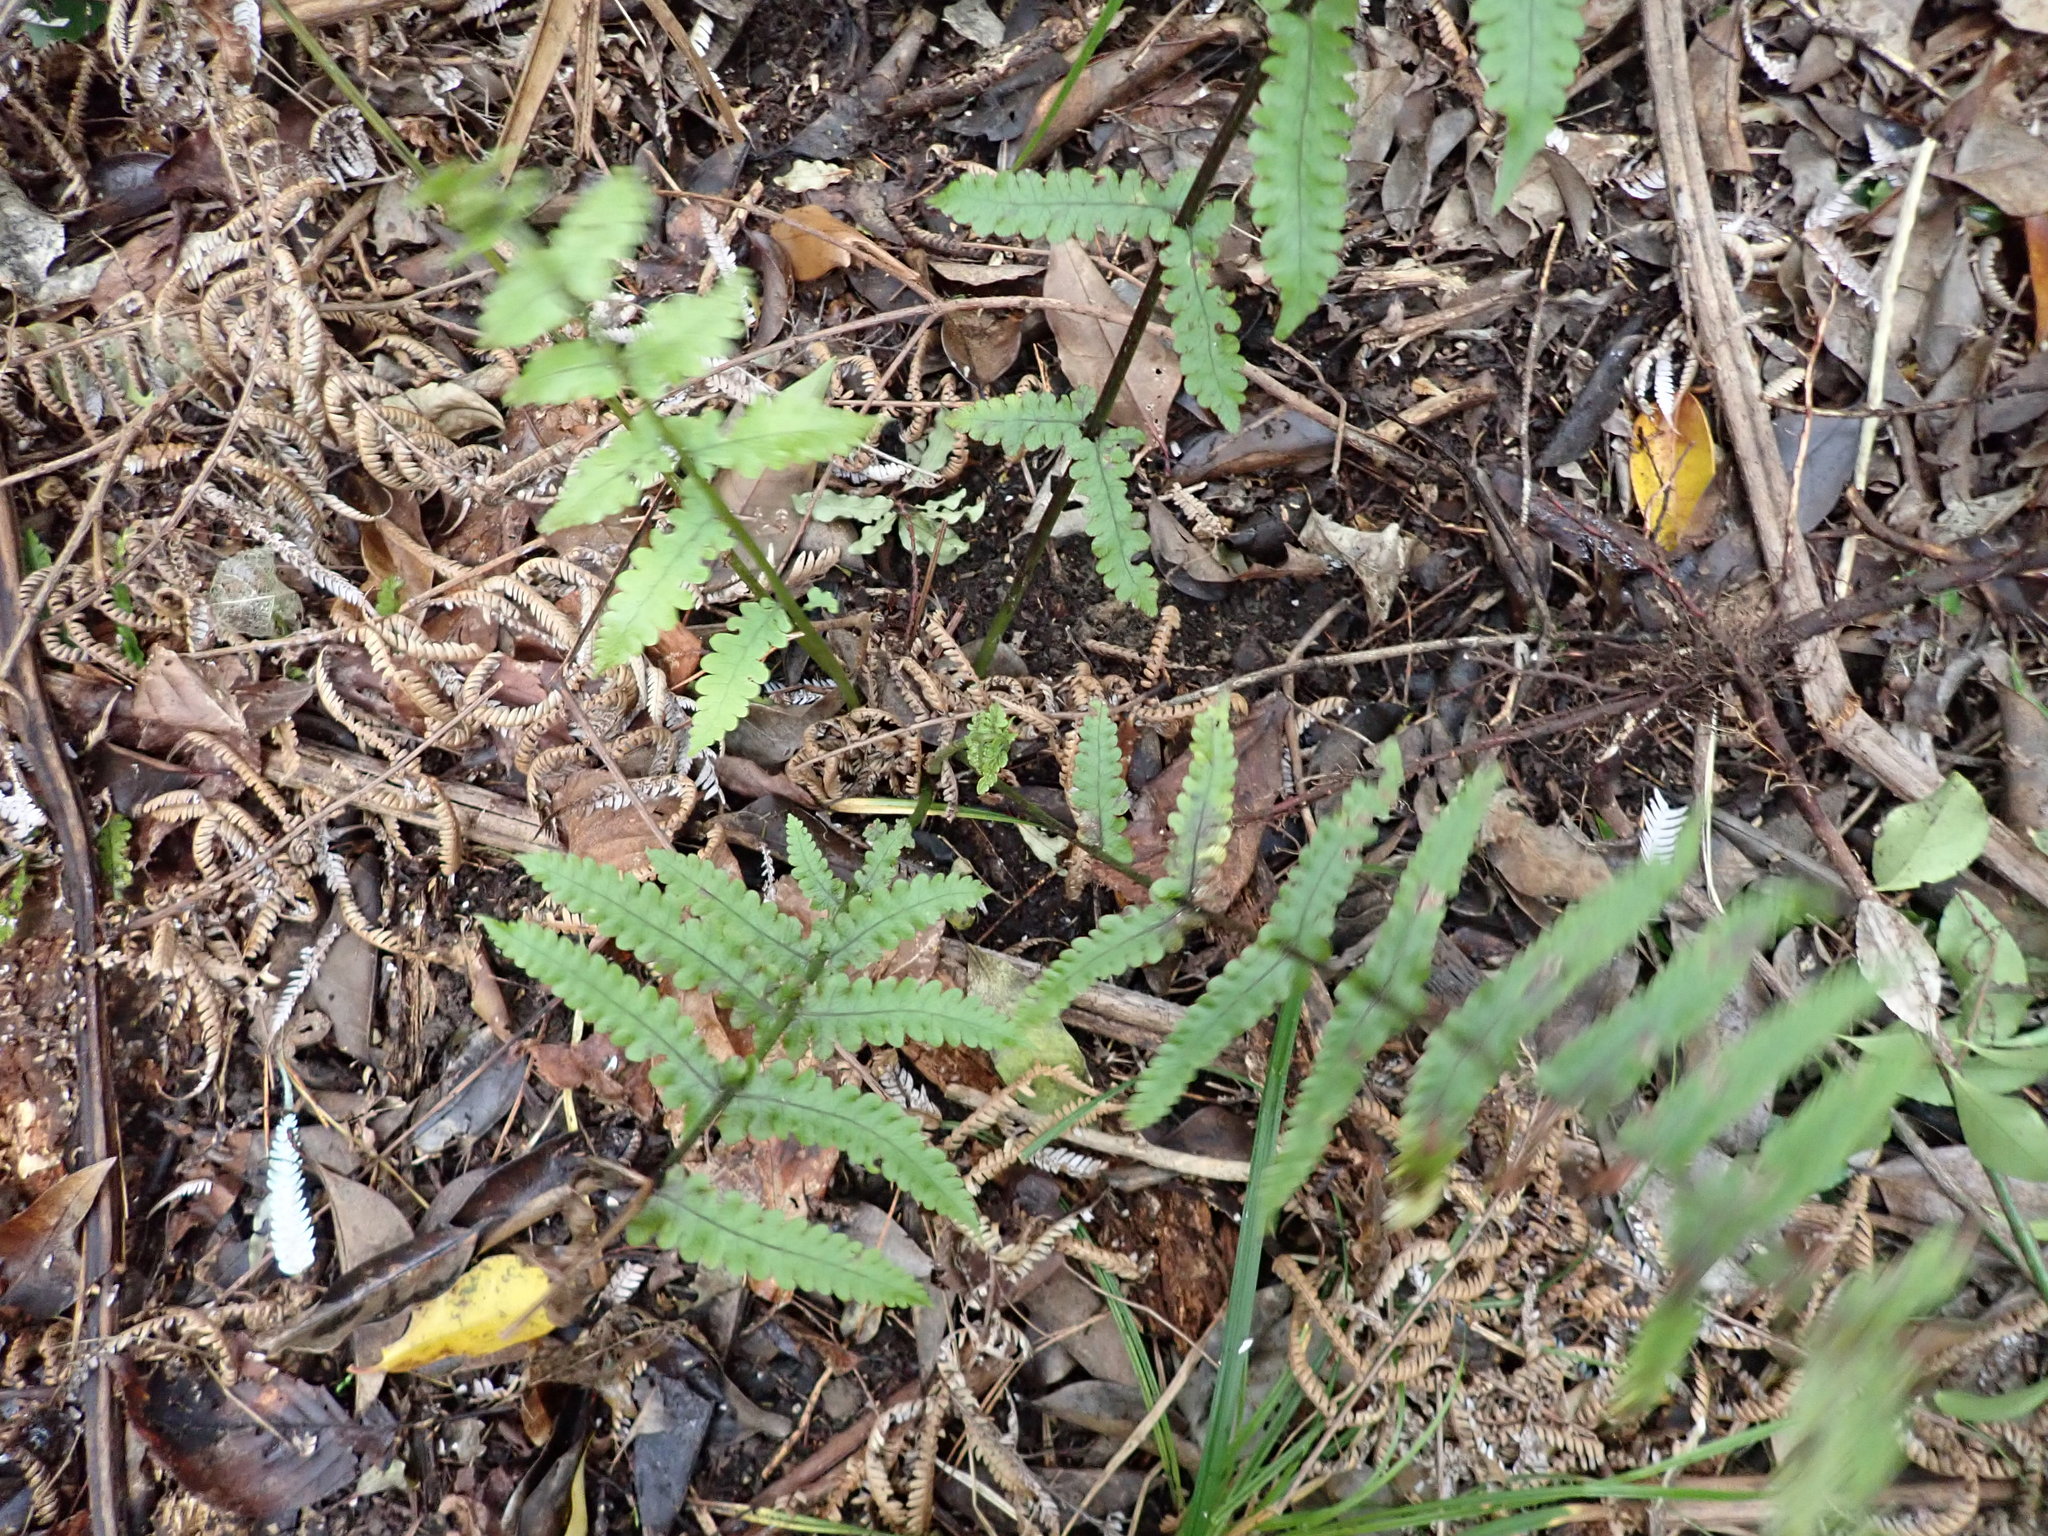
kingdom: Plantae
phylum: Tracheophyta
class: Polypodiopsida
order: Polypodiales
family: Thelypteridaceae
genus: Pakau
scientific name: Pakau pennigera
